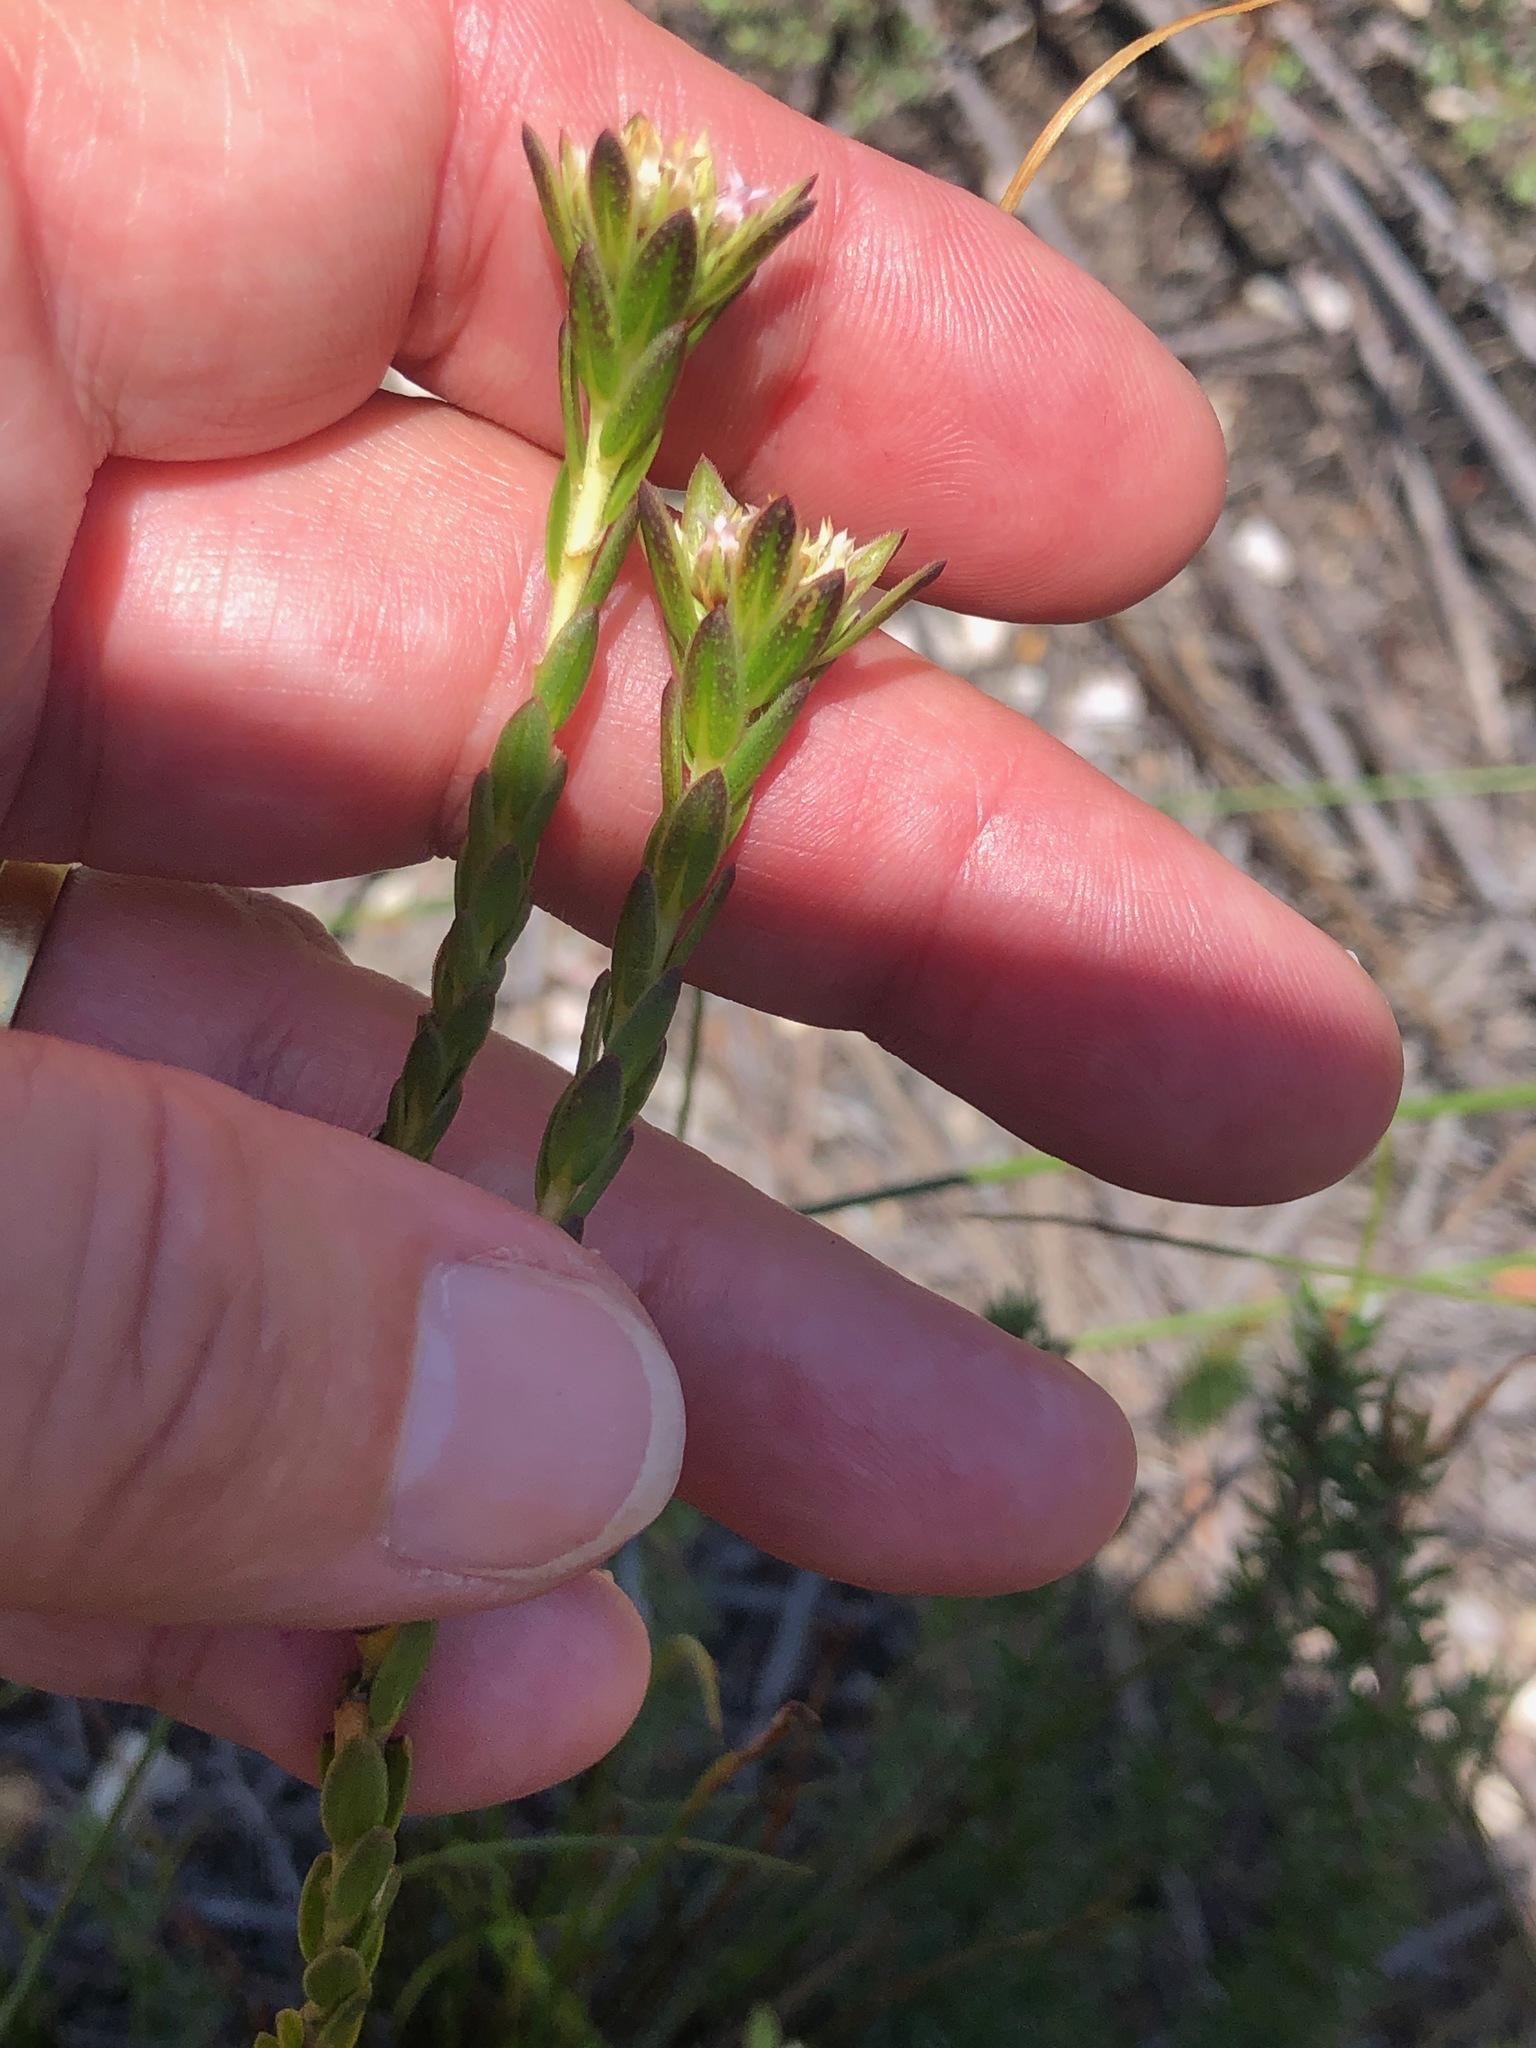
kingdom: Plantae
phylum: Tracheophyta
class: Magnoliopsida
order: Sapindales
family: Rutaceae
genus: Euchaetis
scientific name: Euchaetis longibracteata
